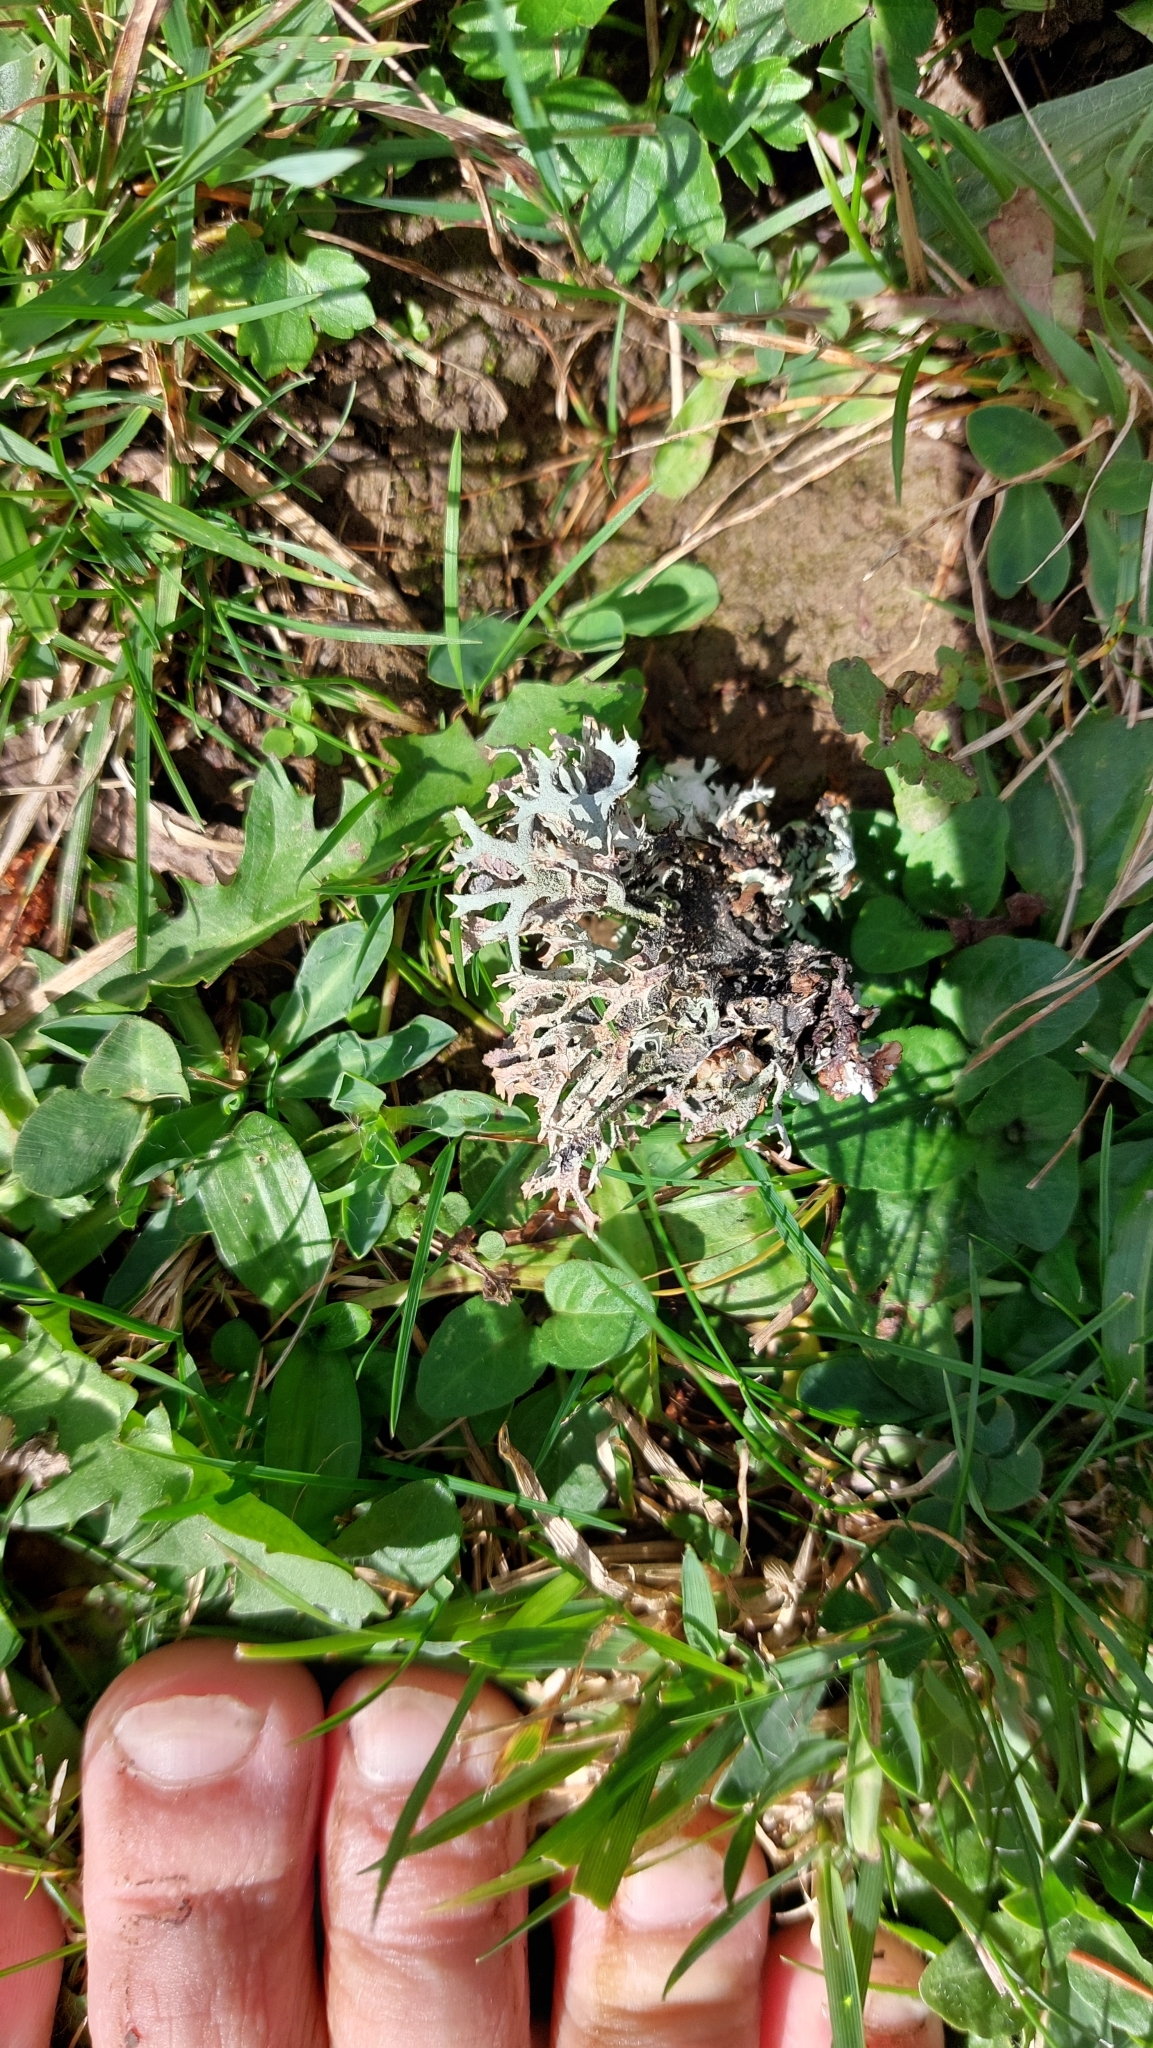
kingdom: Fungi
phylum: Ascomycota
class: Lecanoromycetes
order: Lecanorales
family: Parmeliaceae
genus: Pseudevernia
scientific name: Pseudevernia furfuracea
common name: Tree moss
